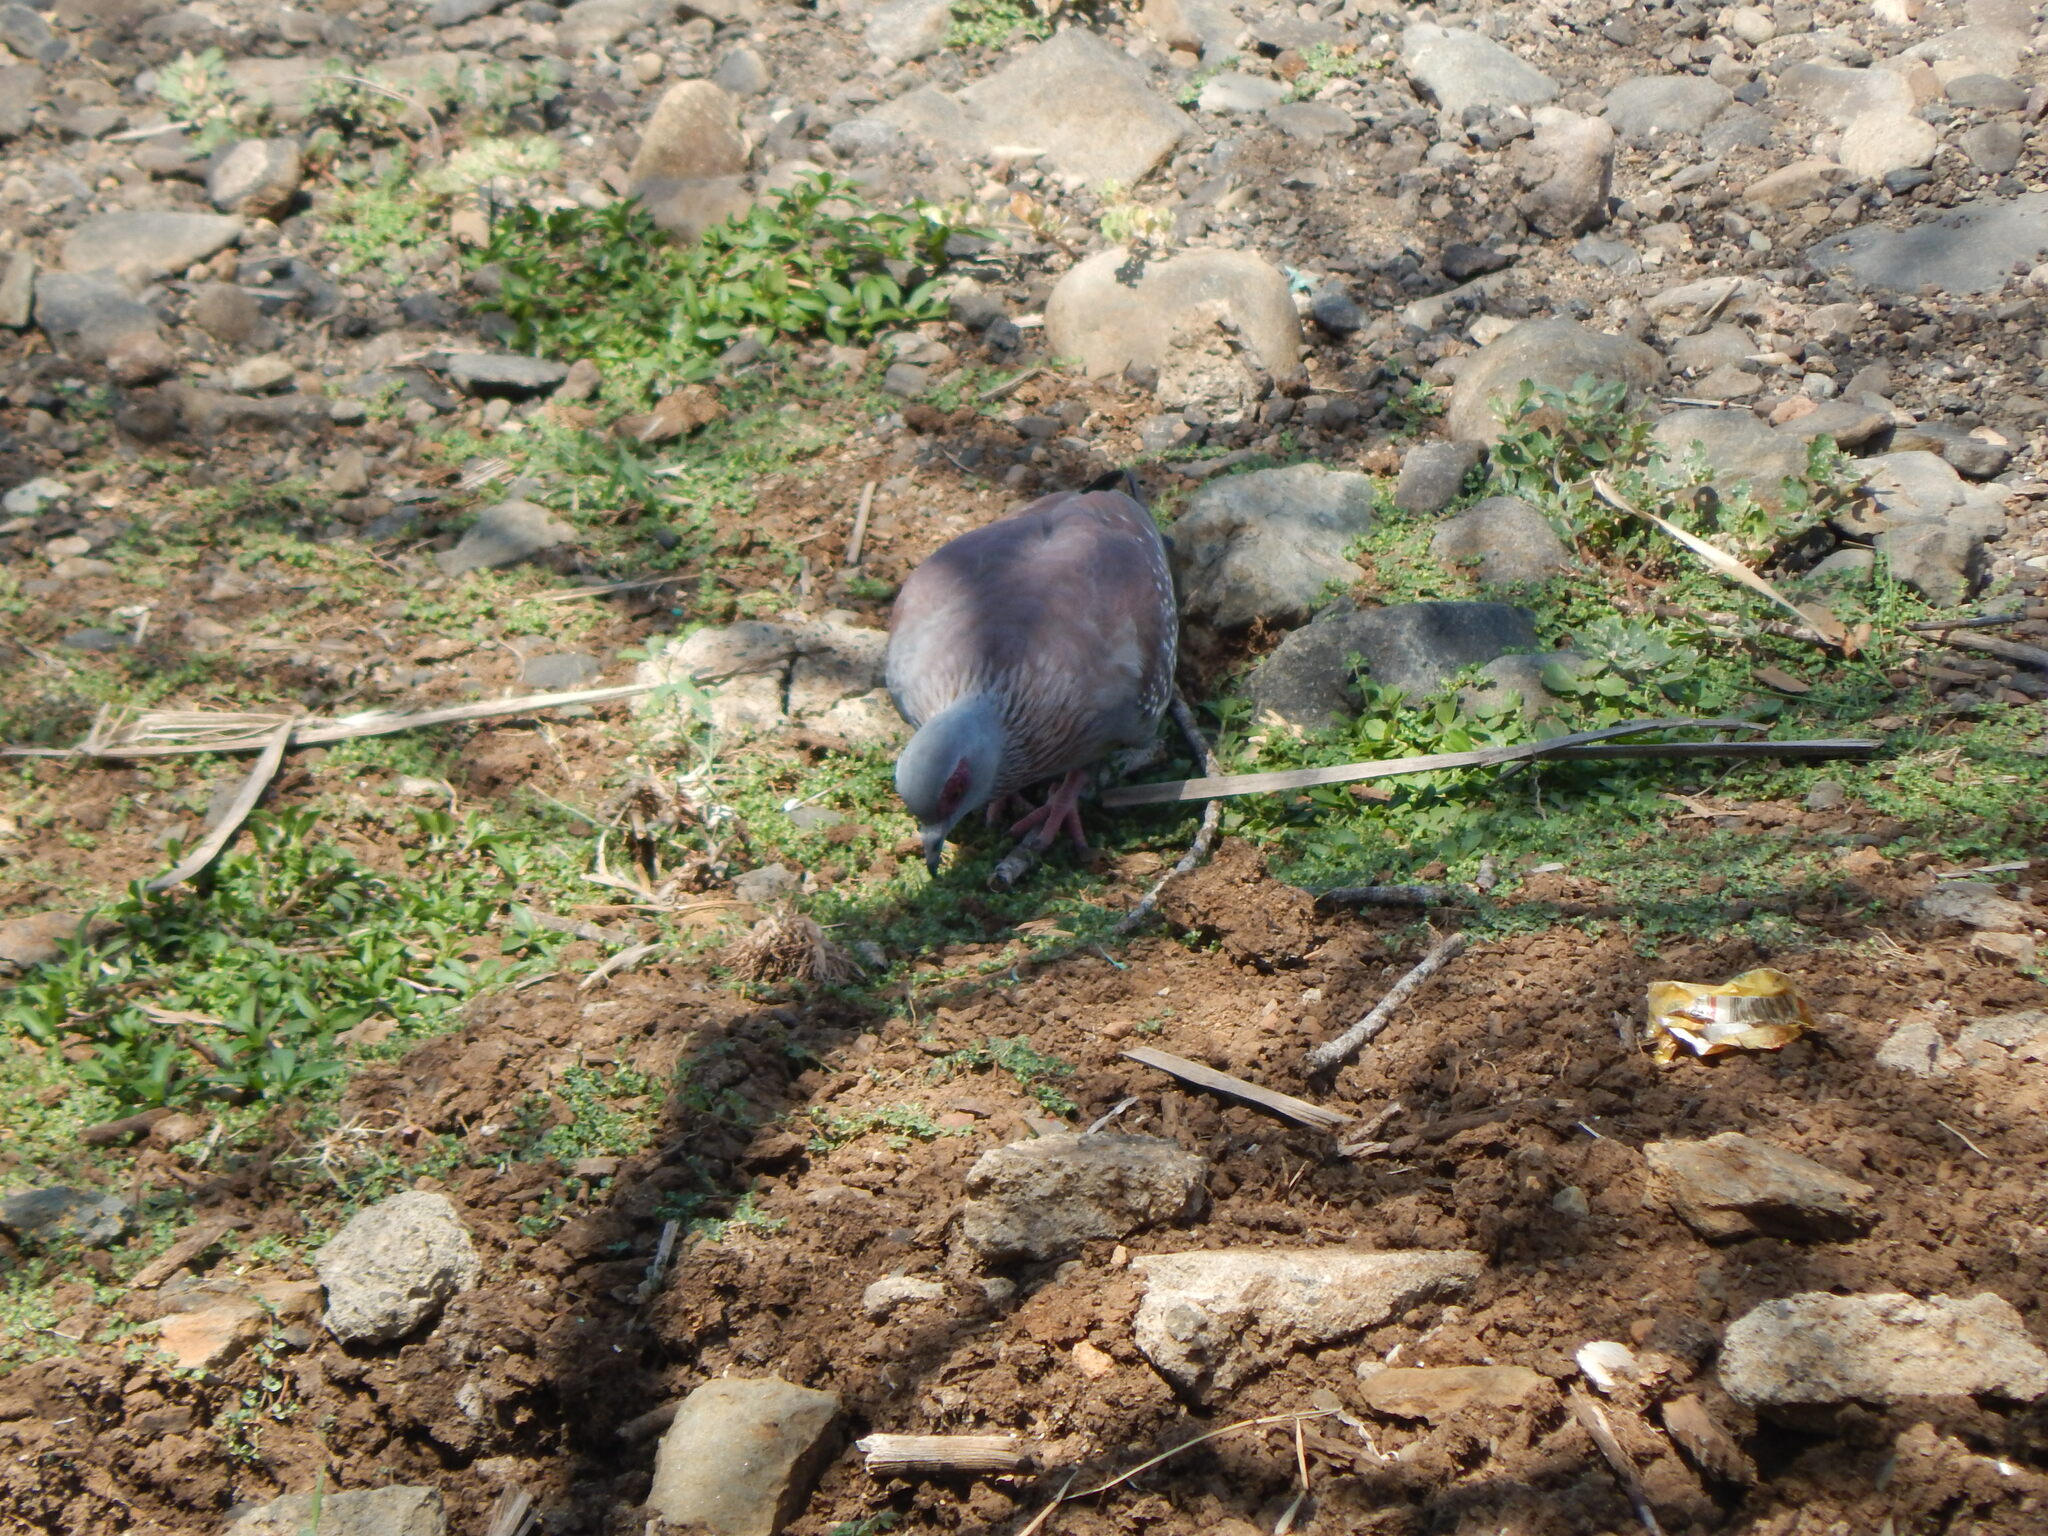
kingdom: Animalia
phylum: Chordata
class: Aves
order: Columbiformes
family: Columbidae
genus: Columba
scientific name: Columba guinea
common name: Speckled pigeon
